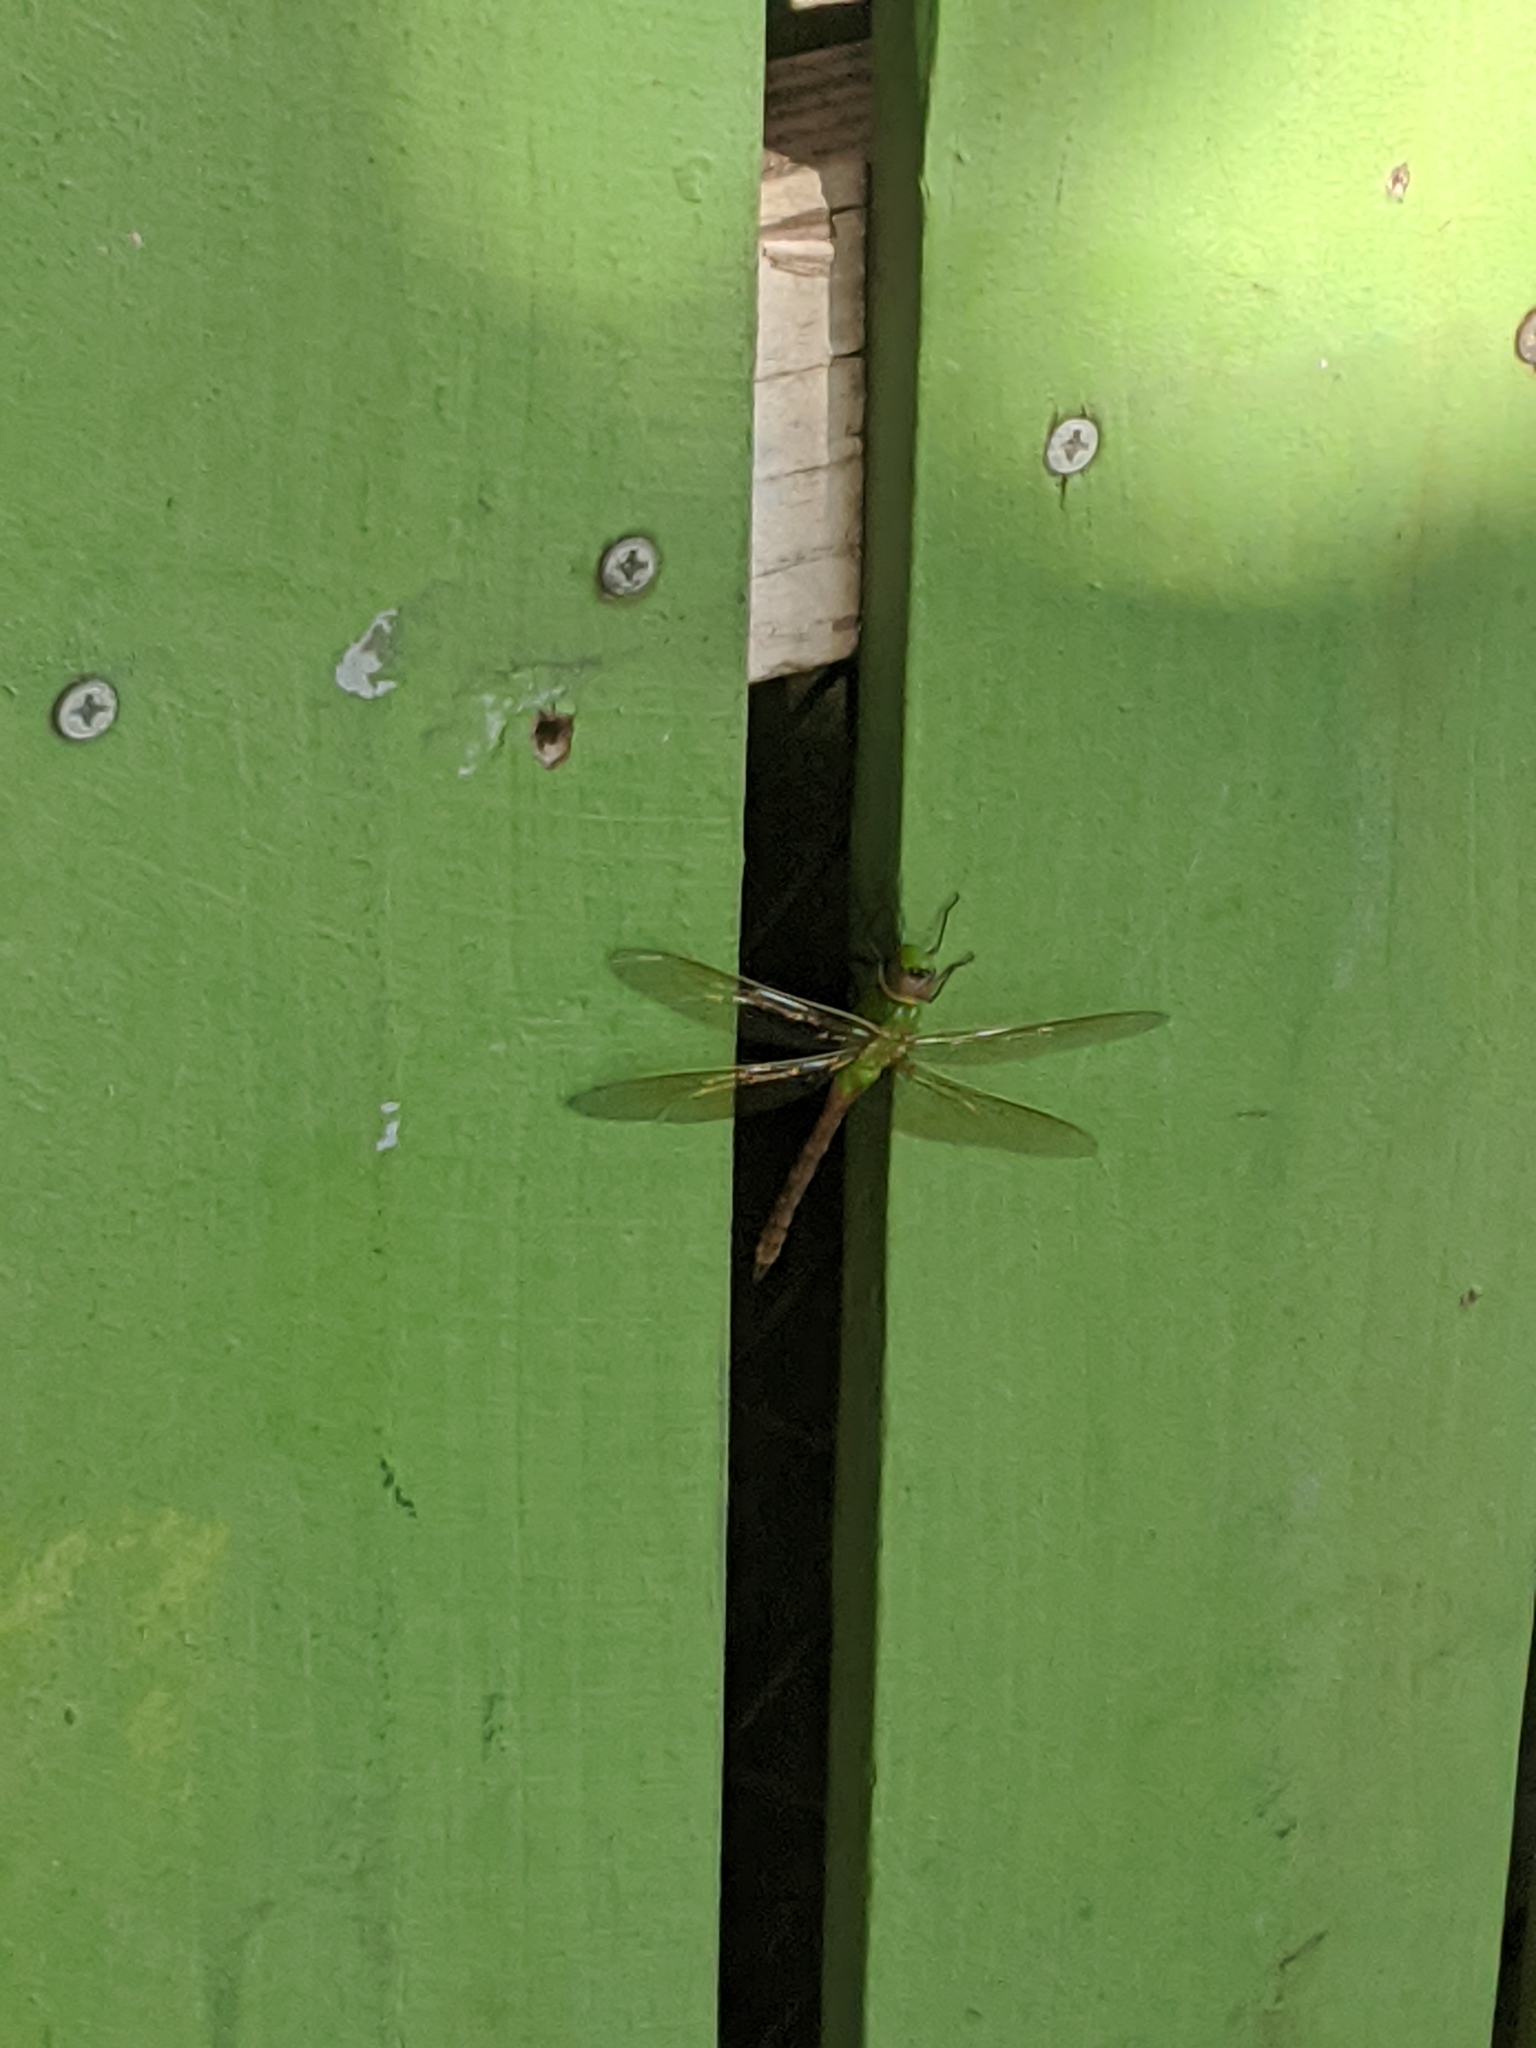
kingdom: Animalia
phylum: Arthropoda
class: Insecta
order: Odonata
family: Aeshnidae
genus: Anax
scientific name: Anax junius
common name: Common green darner
